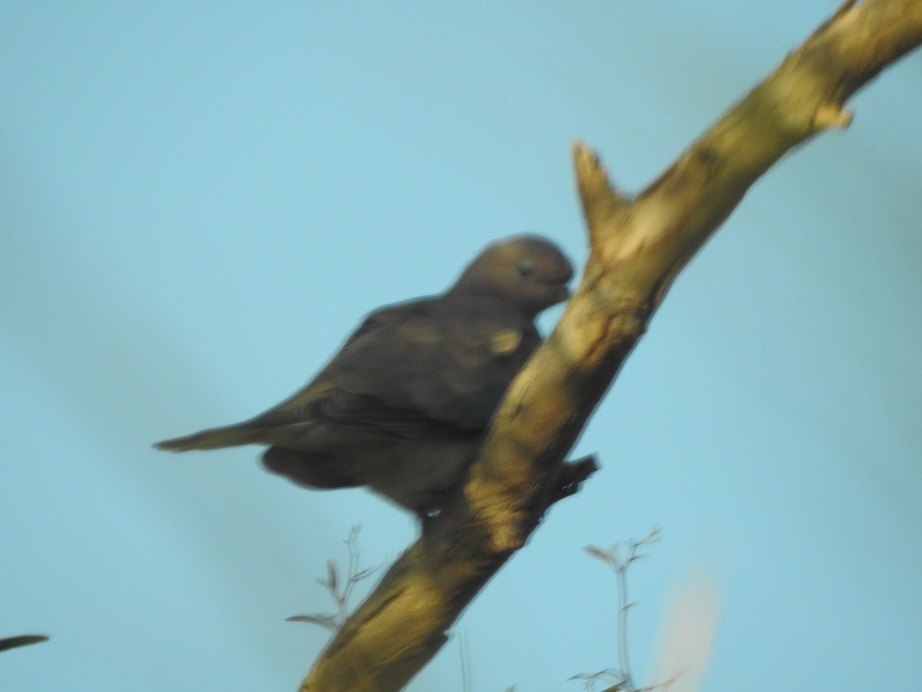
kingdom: Animalia
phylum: Chordata
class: Aves
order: Columbiformes
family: Columbidae
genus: Spilopelia
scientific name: Spilopelia senegalensis
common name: Laughing dove
